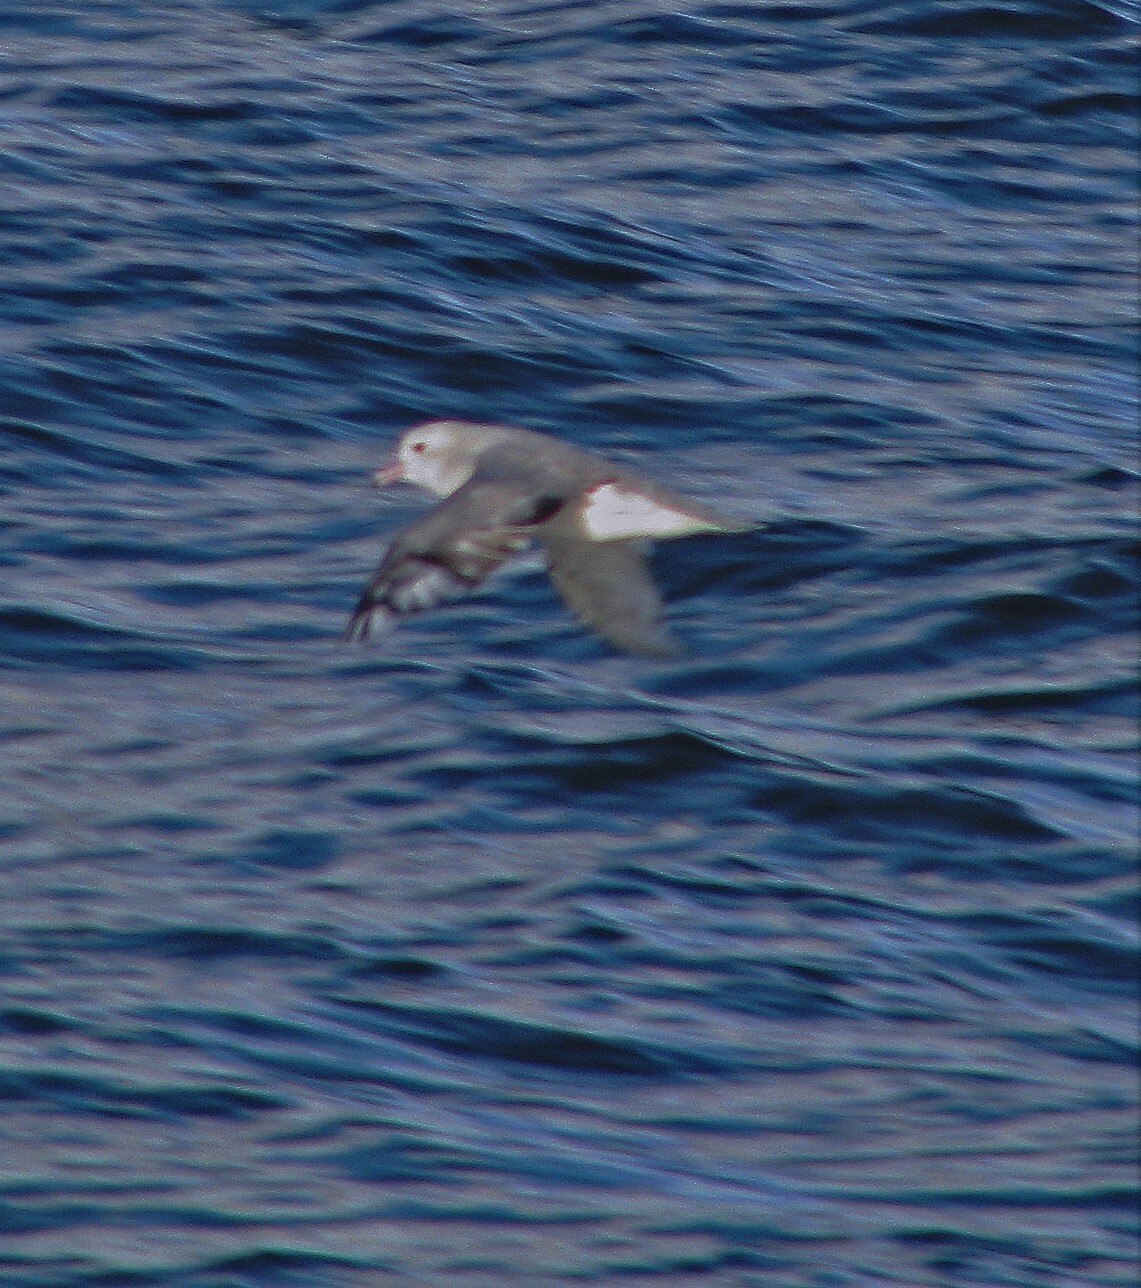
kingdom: Animalia
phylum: Chordata
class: Aves
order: Procellariiformes
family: Procellariidae
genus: Fulmarus
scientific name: Fulmarus glacialoides
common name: Southern fulmar
